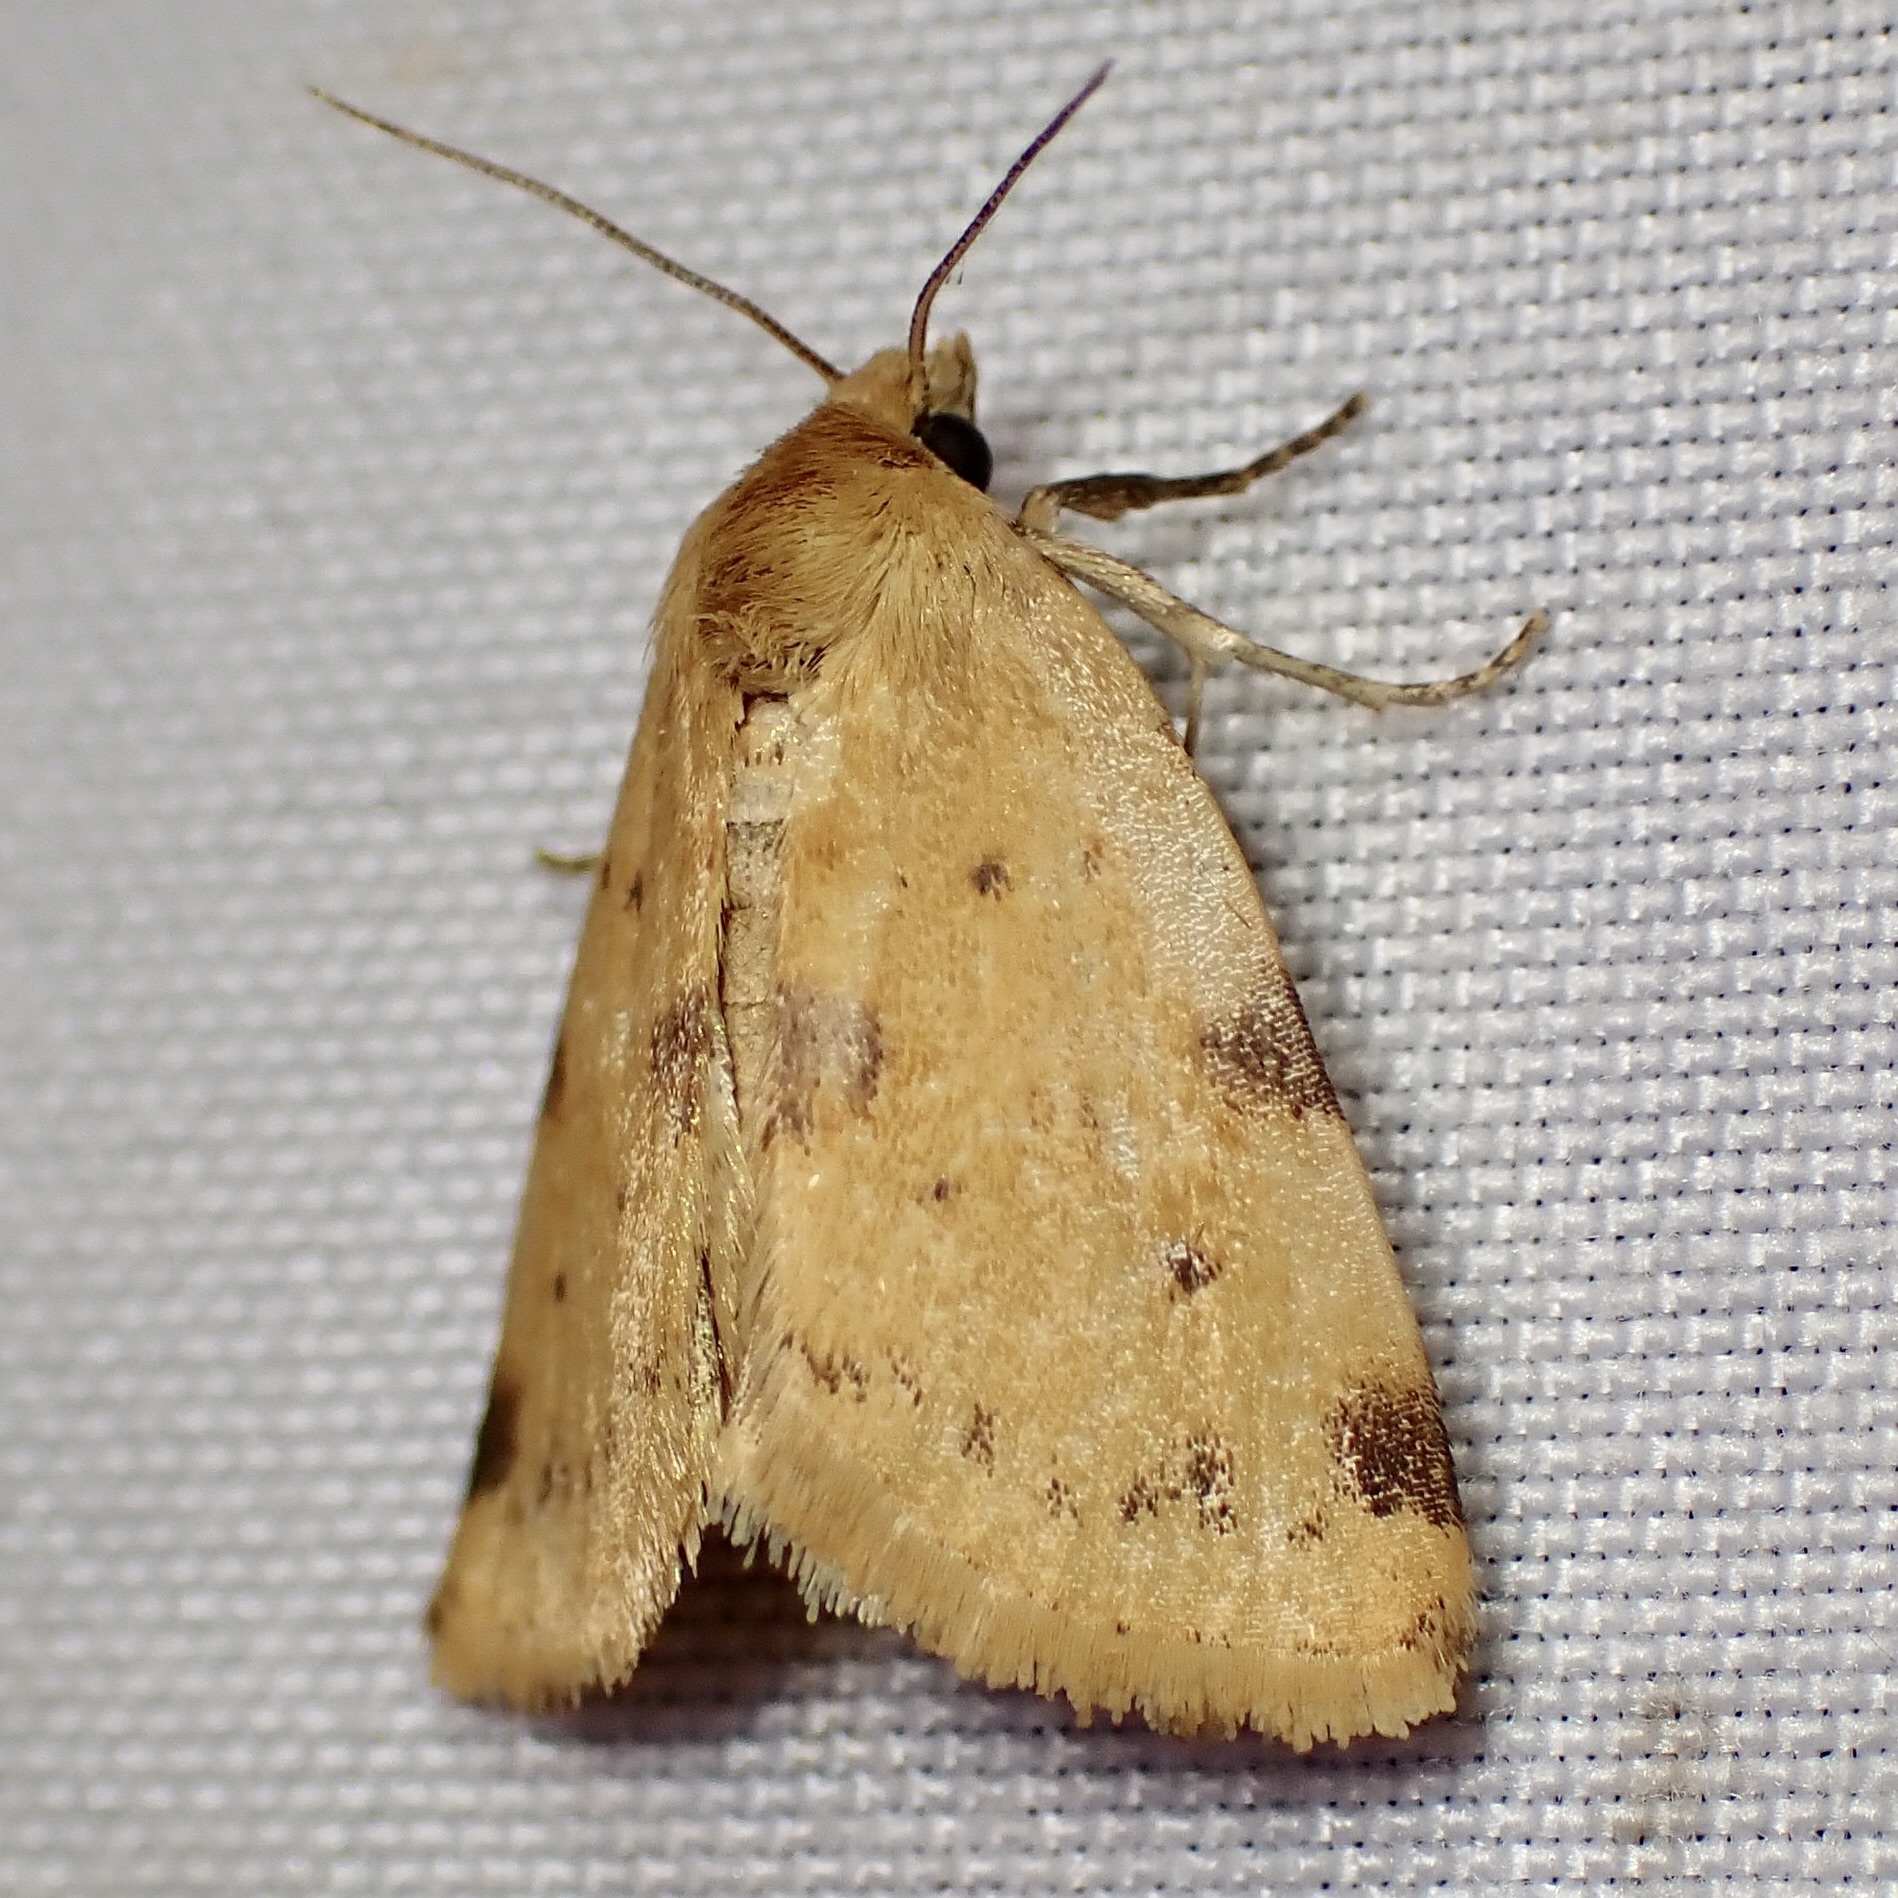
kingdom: Animalia
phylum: Arthropoda
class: Insecta
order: Lepidoptera
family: Noctuidae
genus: Azenia
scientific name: Azenia edentata
